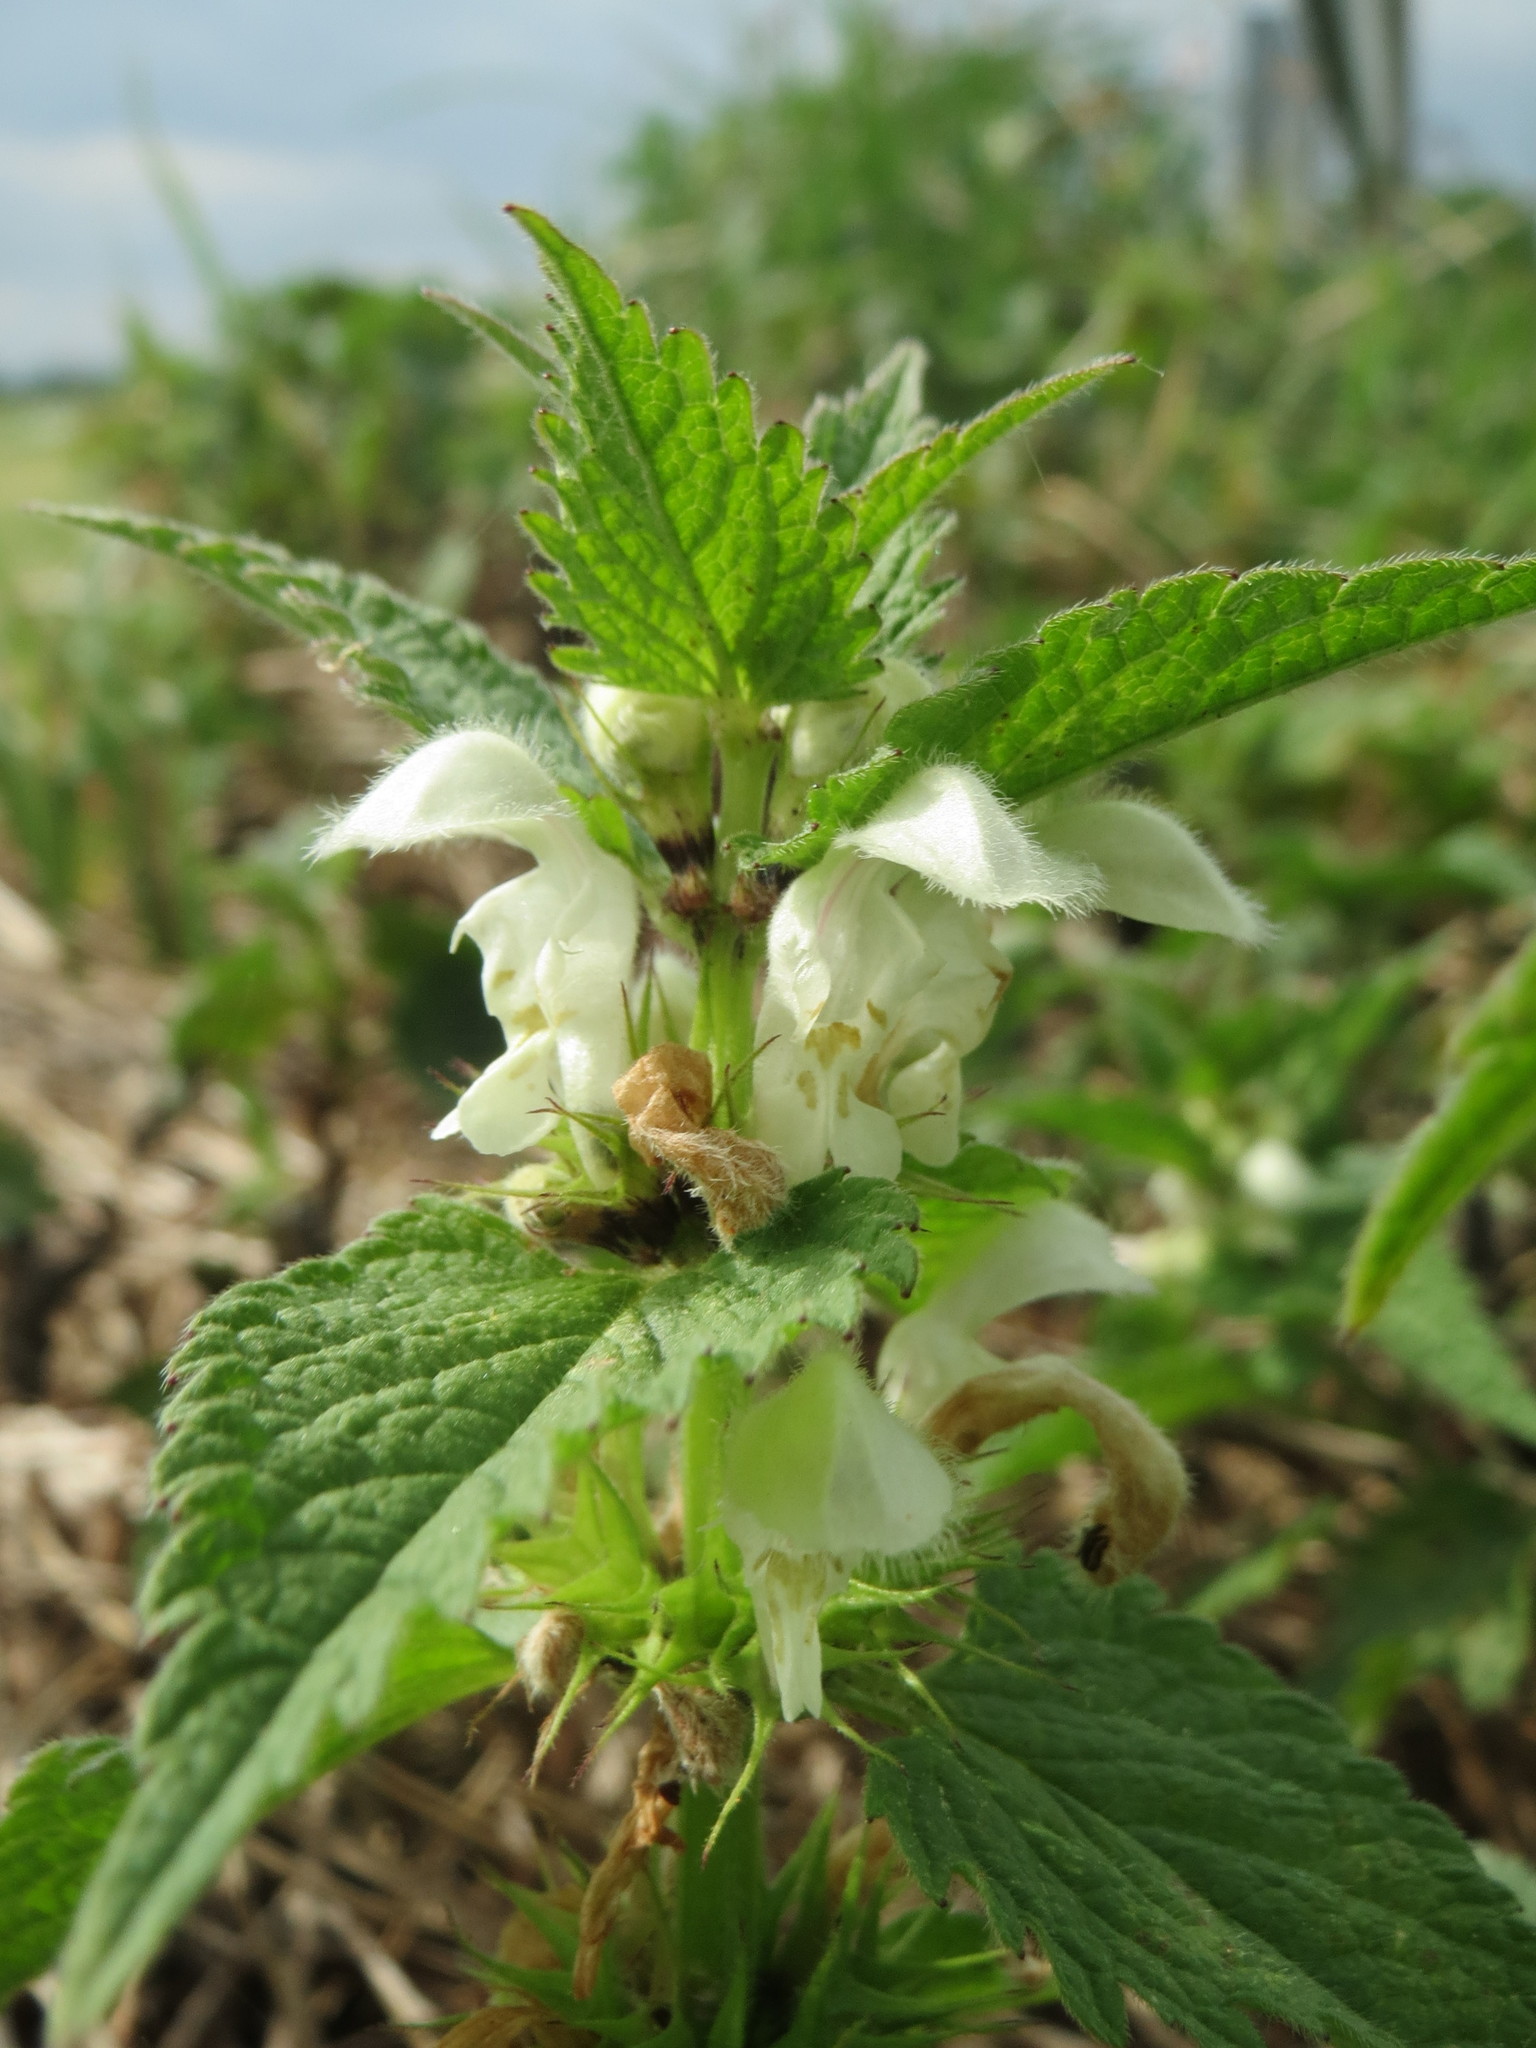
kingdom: Plantae
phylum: Tracheophyta
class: Magnoliopsida
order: Lamiales
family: Lamiaceae
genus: Lamium
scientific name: Lamium album
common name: White dead-nettle
